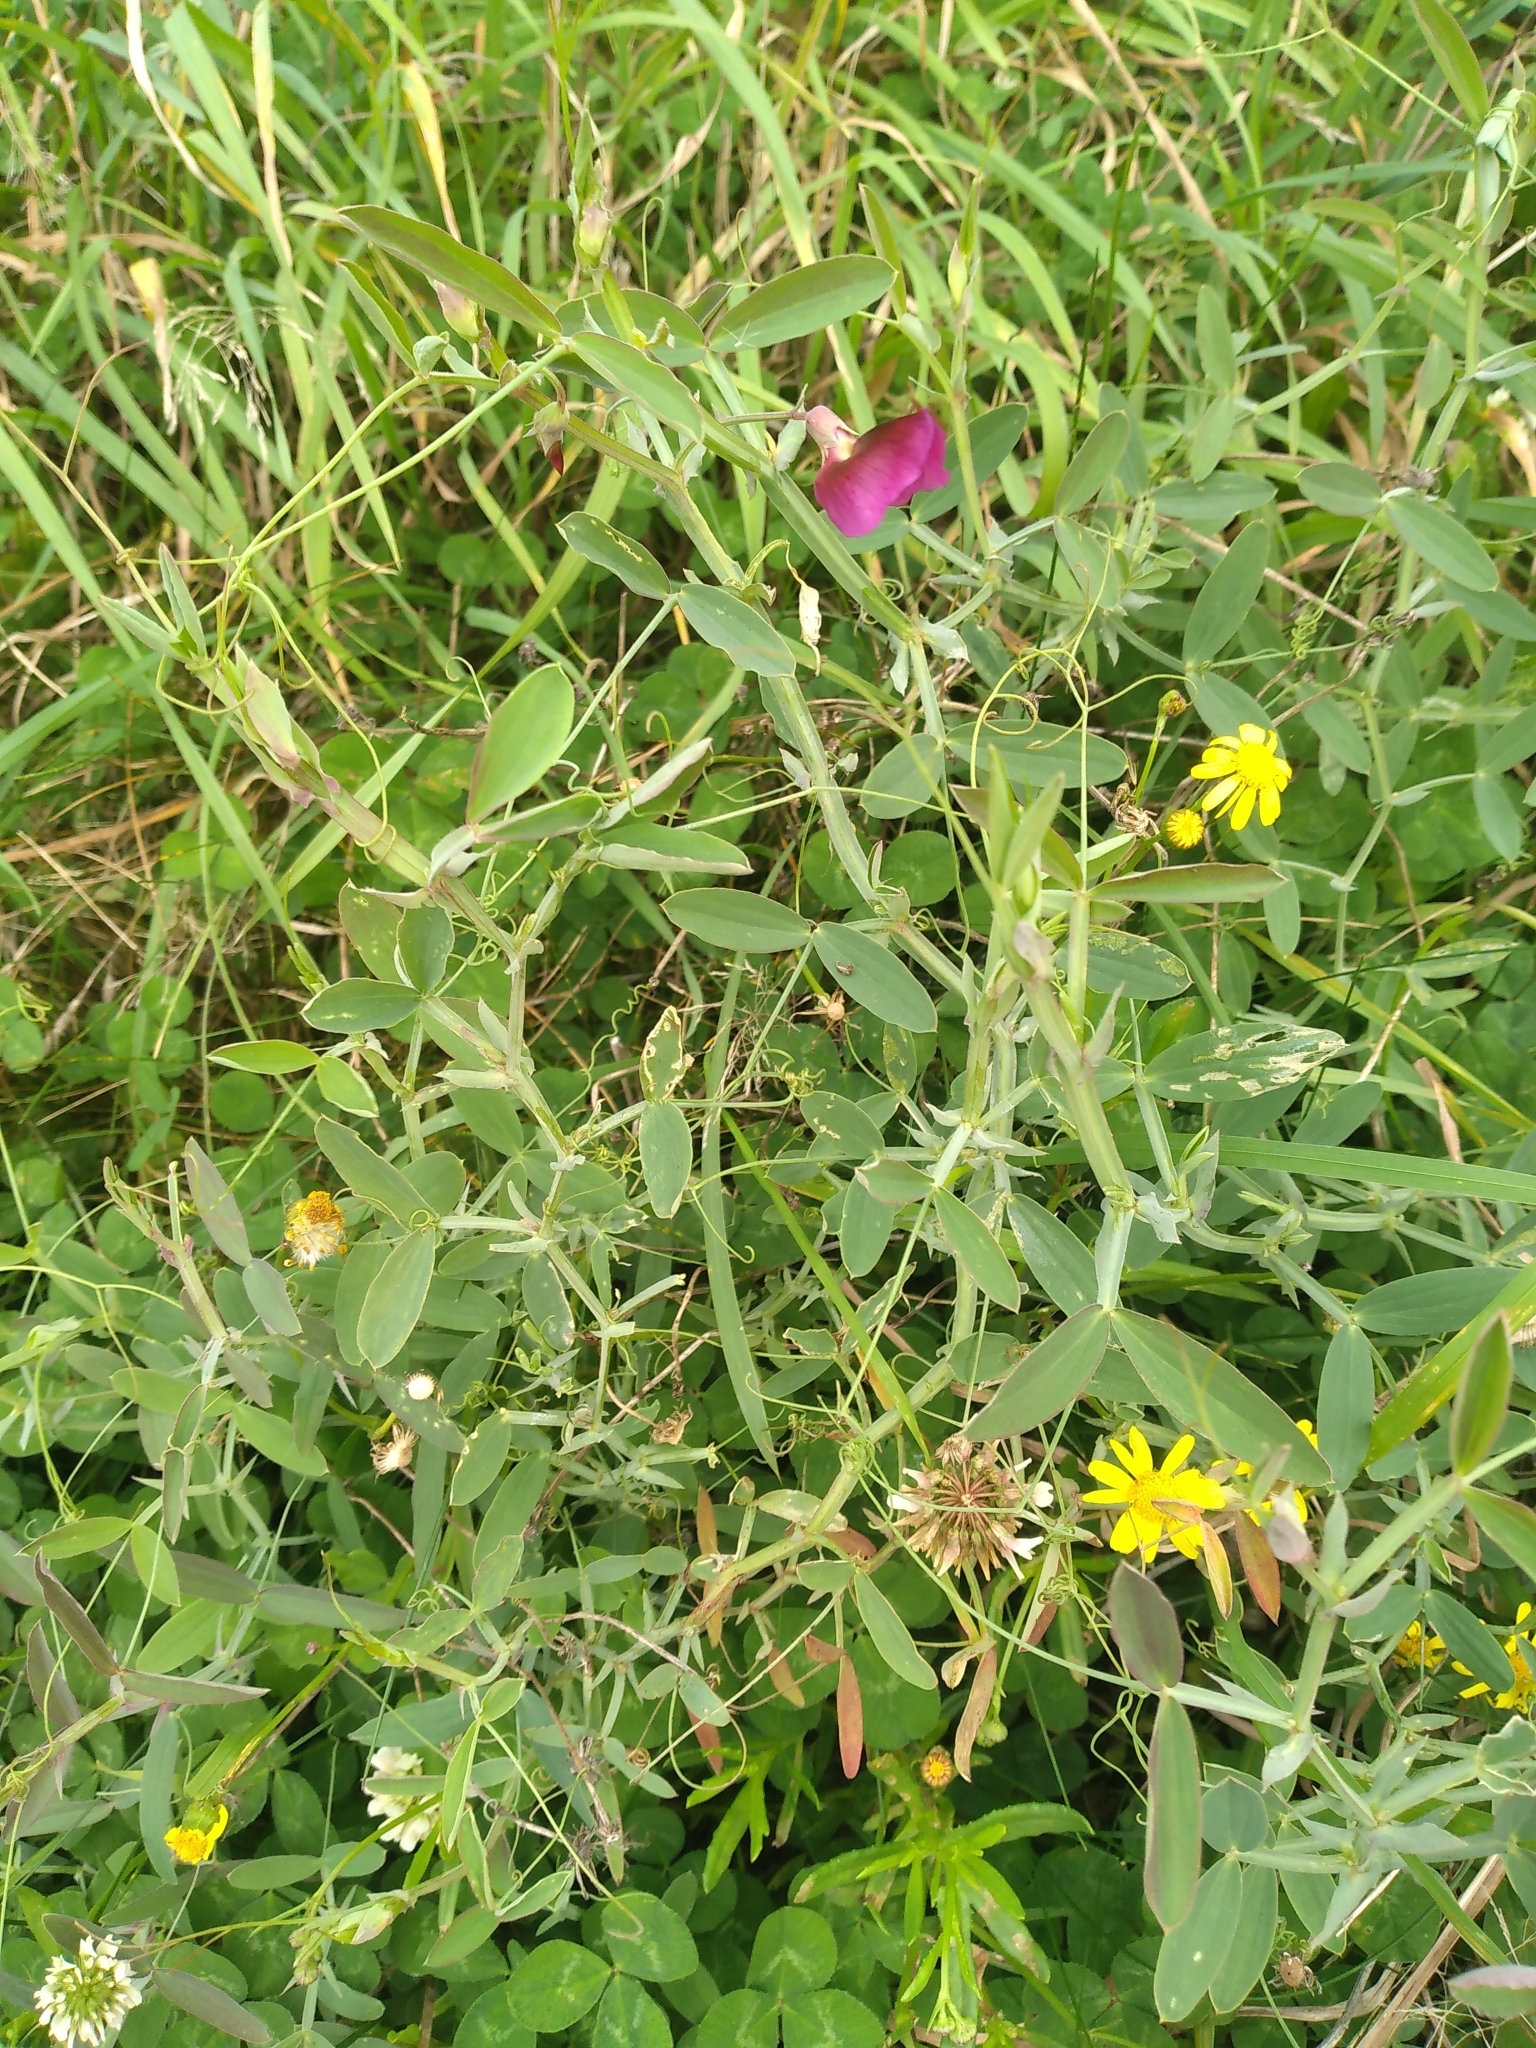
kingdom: Plantae
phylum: Tracheophyta
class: Magnoliopsida
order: Fabales
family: Fabaceae
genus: Lathyrus
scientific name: Lathyrus tingitanus
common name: Tangier pea
